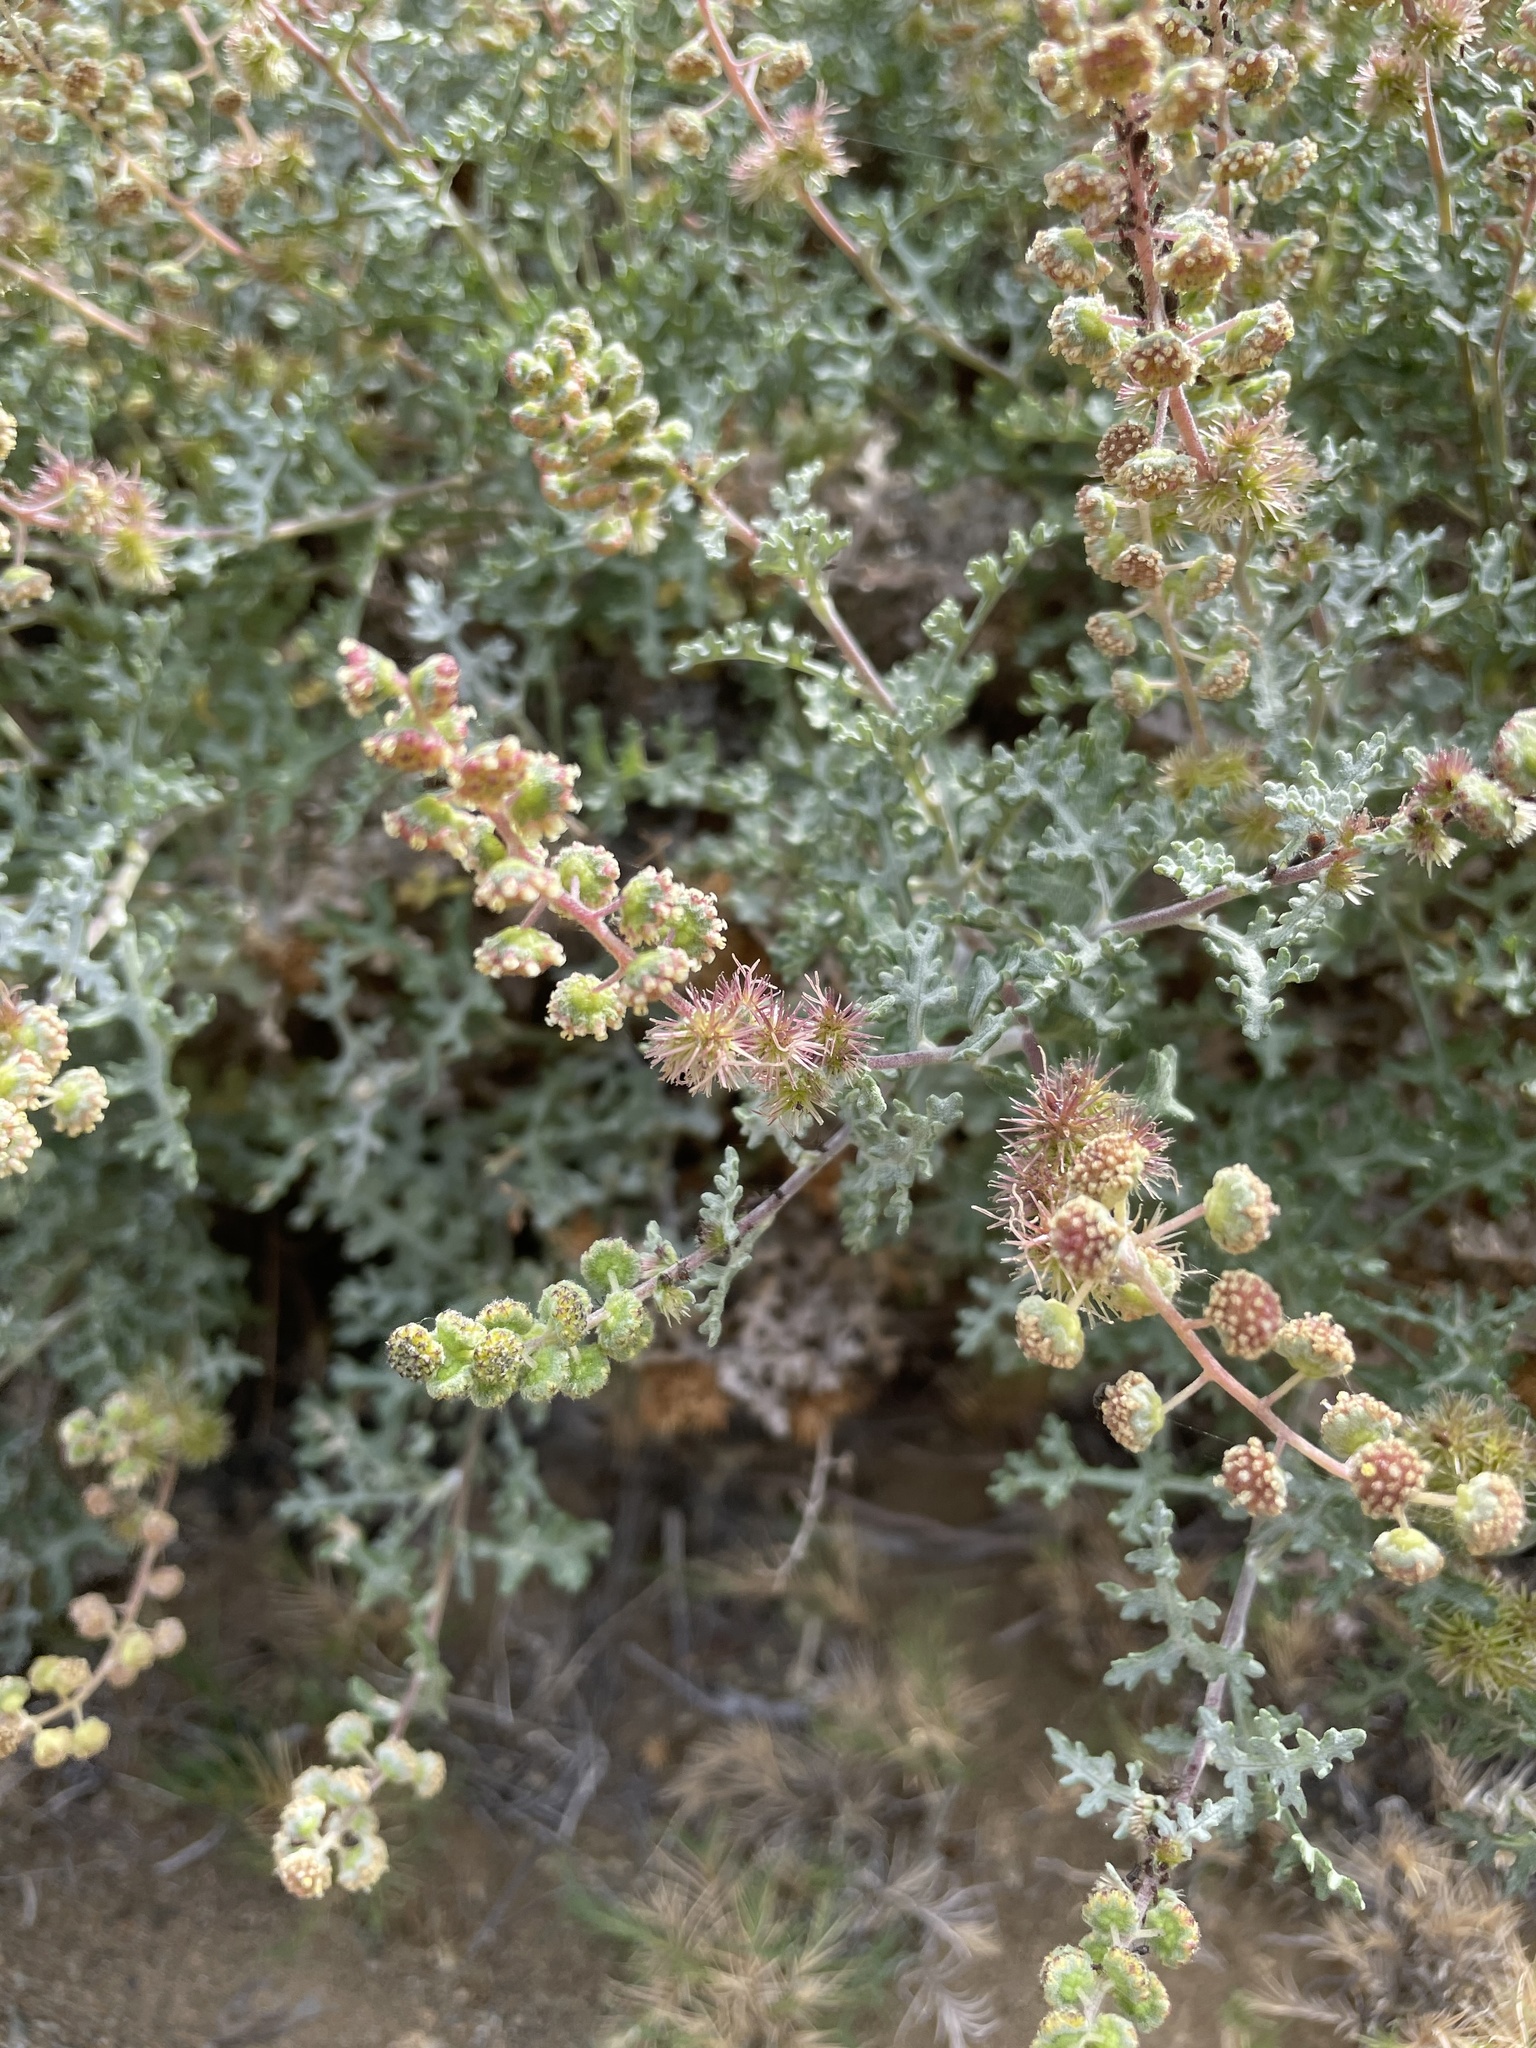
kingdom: Plantae
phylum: Tracheophyta
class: Magnoliopsida
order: Asterales
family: Asteraceae
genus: Ambrosia
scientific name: Ambrosia magdalenae
